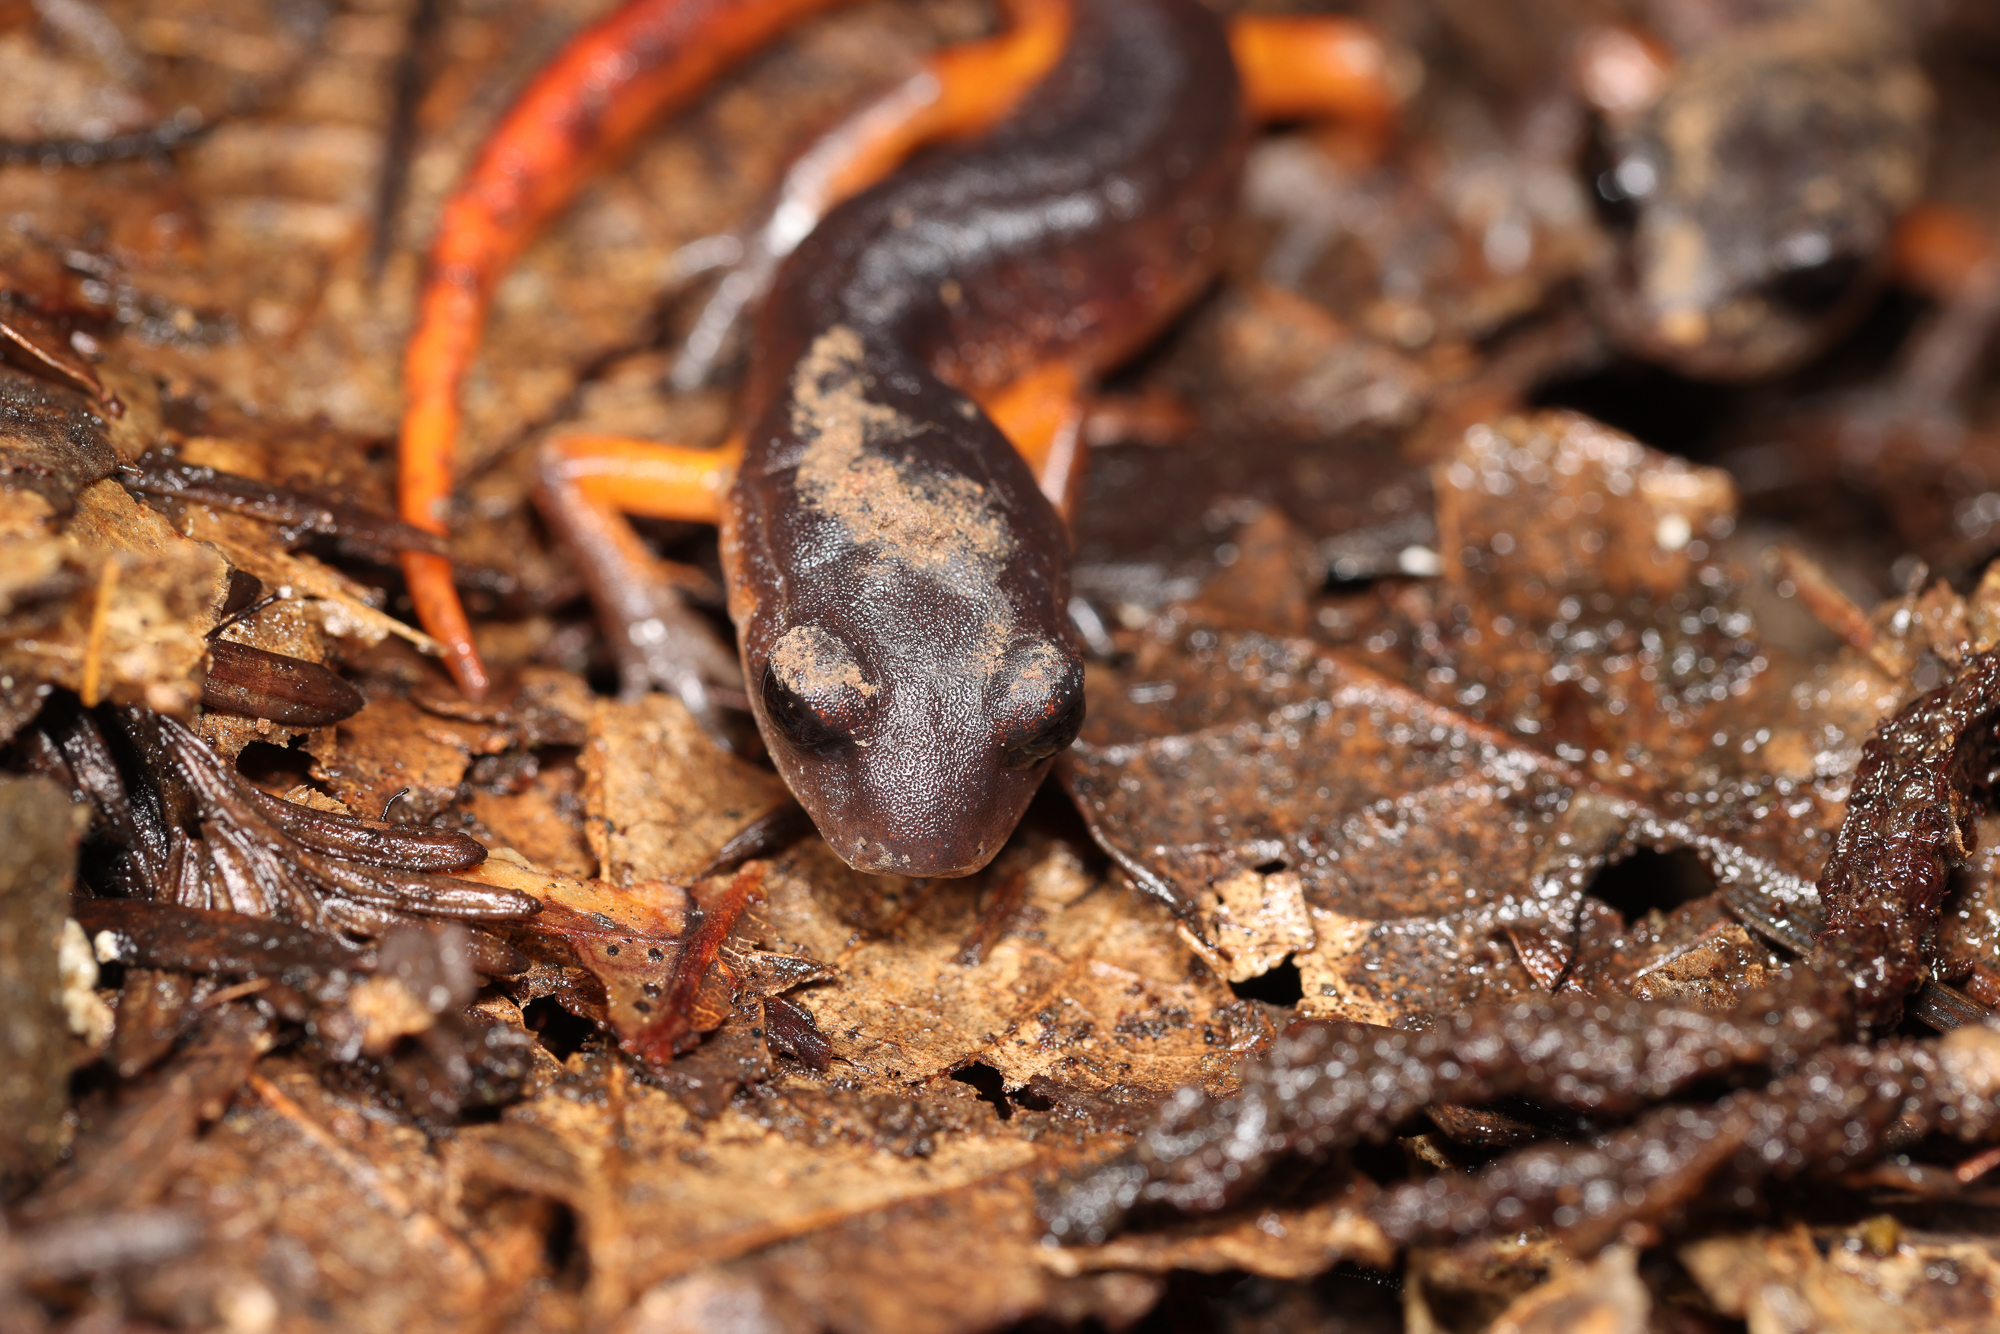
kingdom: Animalia
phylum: Chordata
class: Amphibia
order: Caudata
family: Plethodontidae
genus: Ensatina
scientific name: Ensatina eschscholtzii
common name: Ensatina
